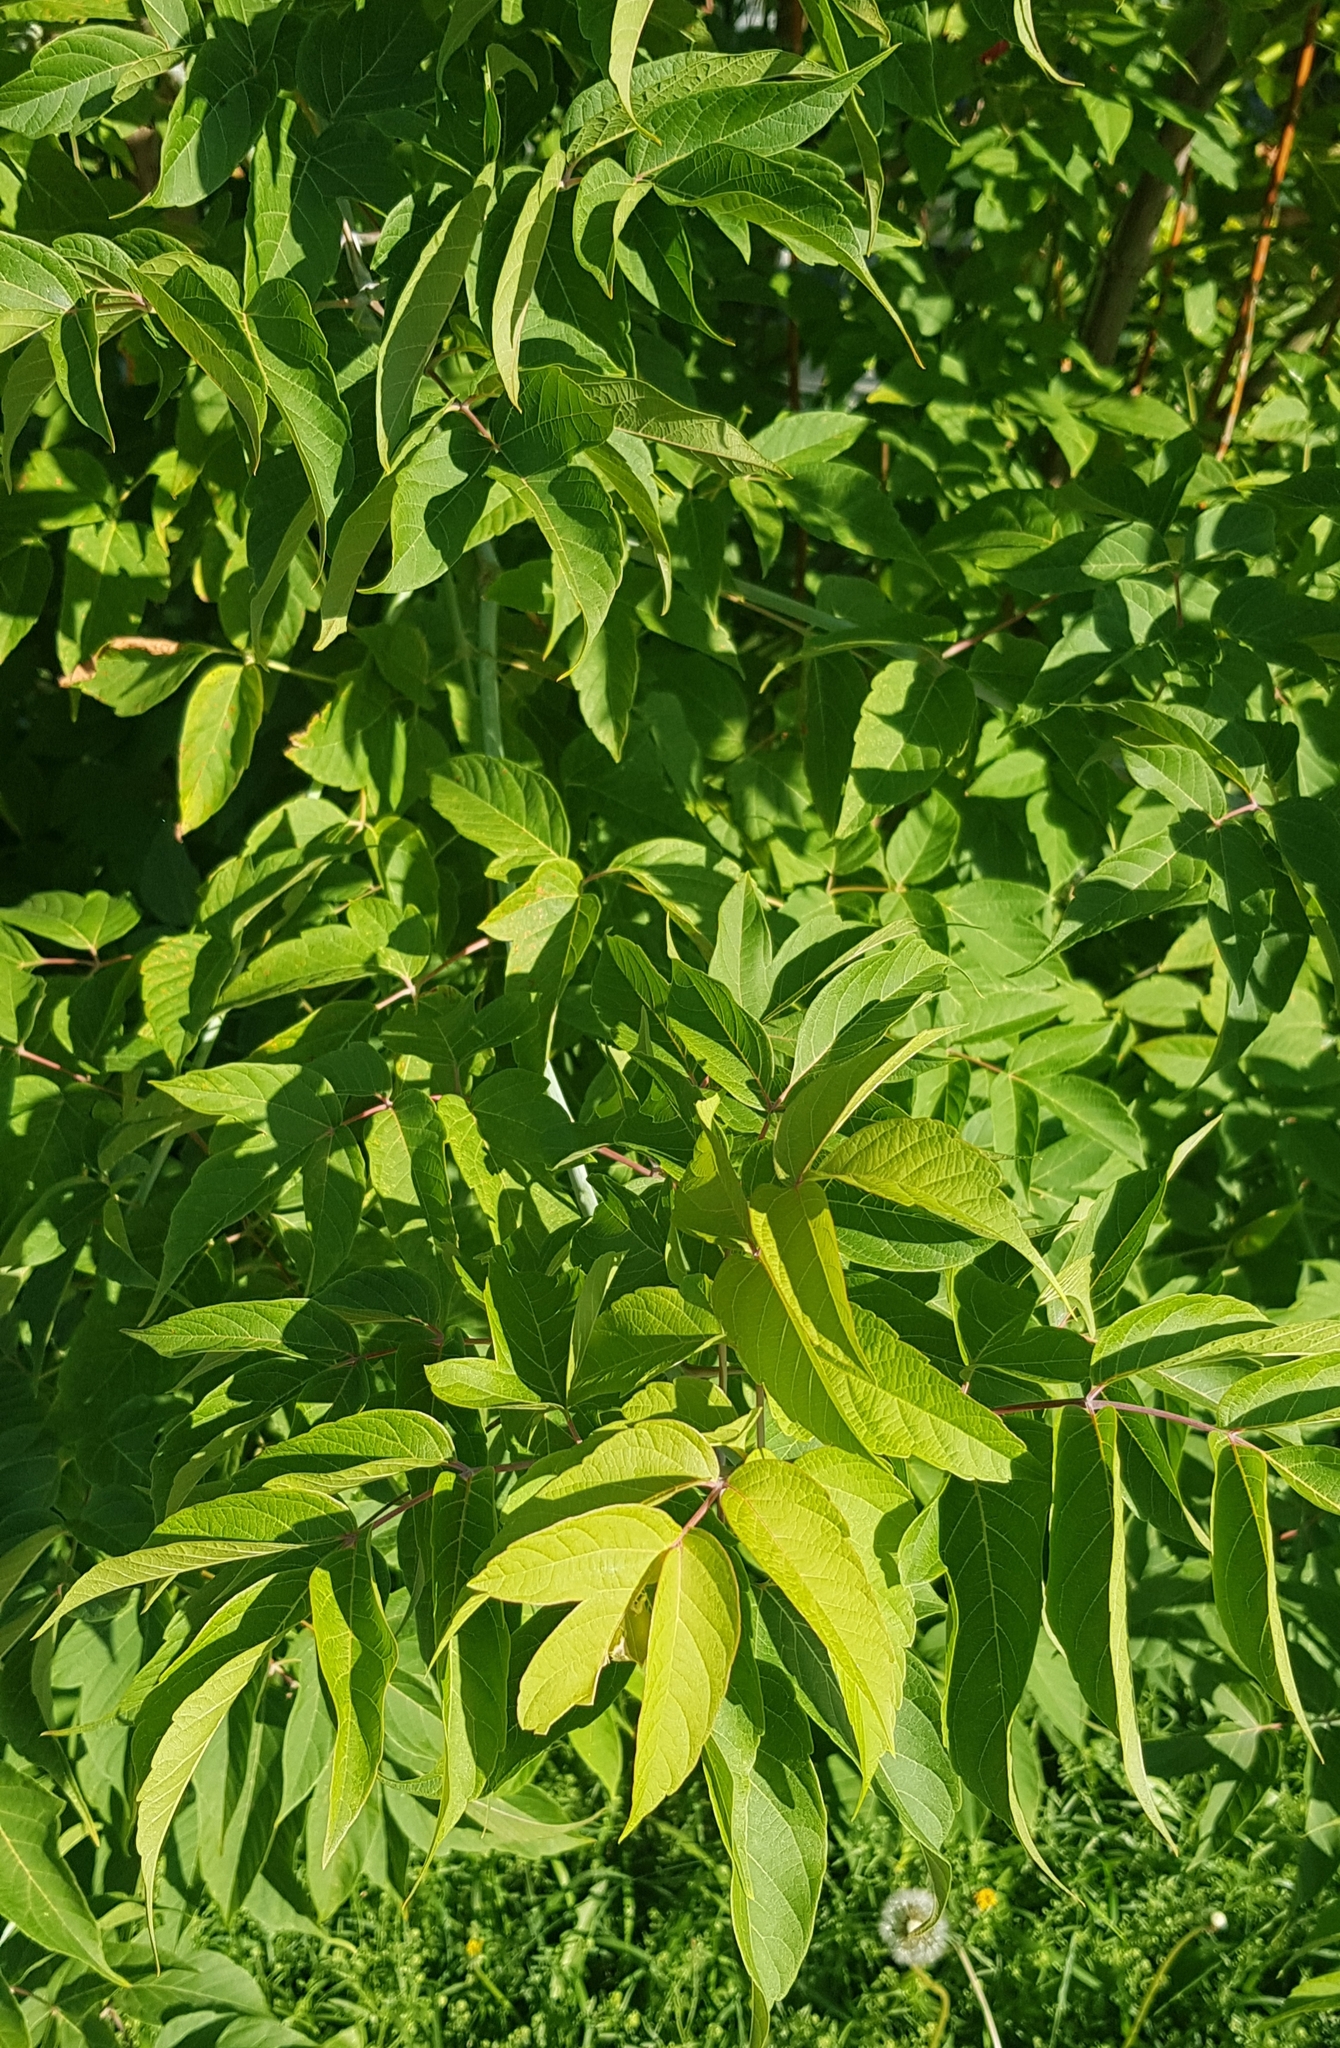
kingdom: Plantae
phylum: Tracheophyta
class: Magnoliopsida
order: Sapindales
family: Sapindaceae
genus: Acer
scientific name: Acer negundo
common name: Ashleaf maple
